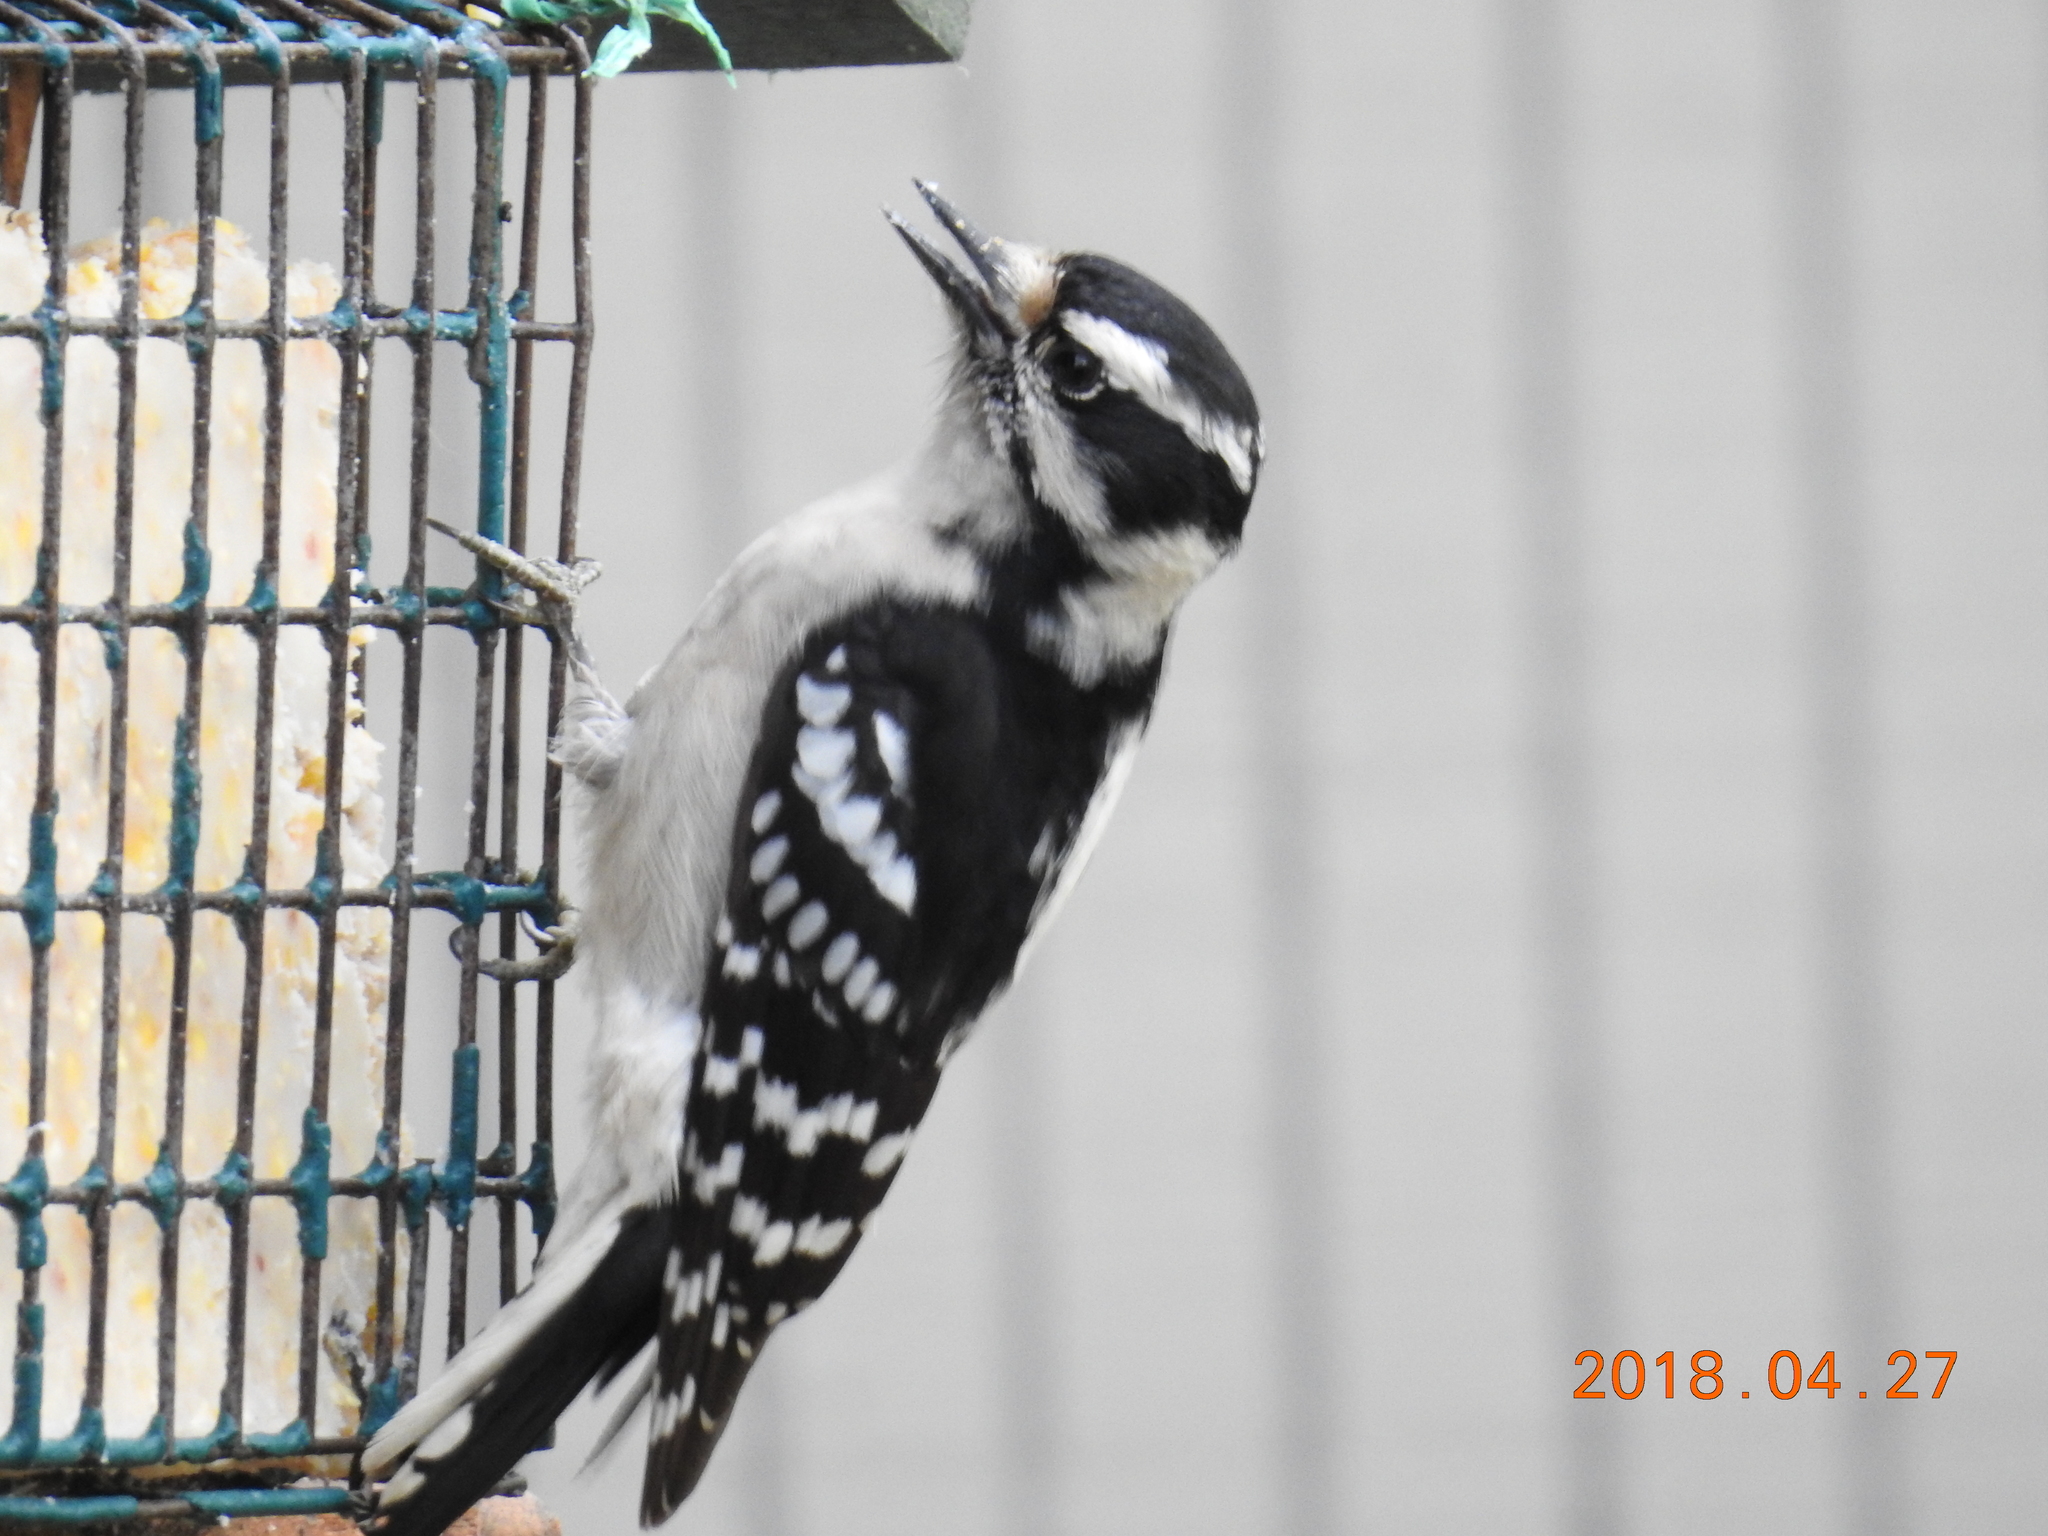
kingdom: Animalia
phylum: Chordata
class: Aves
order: Piciformes
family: Picidae
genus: Dryobates
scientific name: Dryobates pubescens
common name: Downy woodpecker
